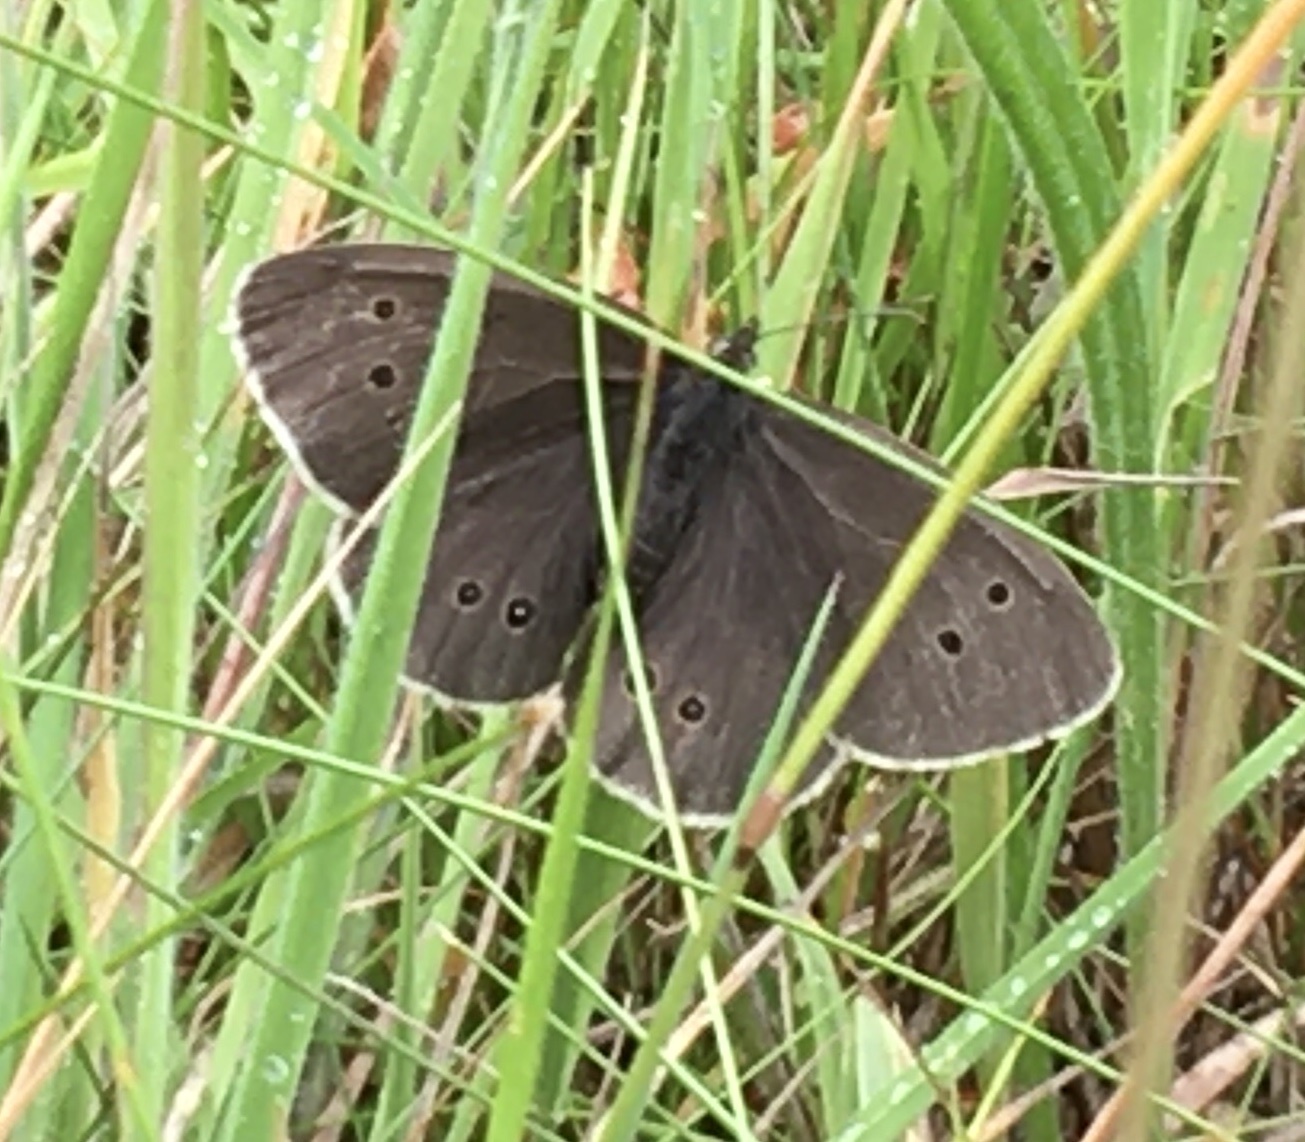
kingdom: Animalia
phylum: Arthropoda
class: Insecta
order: Lepidoptera
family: Nymphalidae
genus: Aphantopus
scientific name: Aphantopus hyperantus
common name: Ringlet
